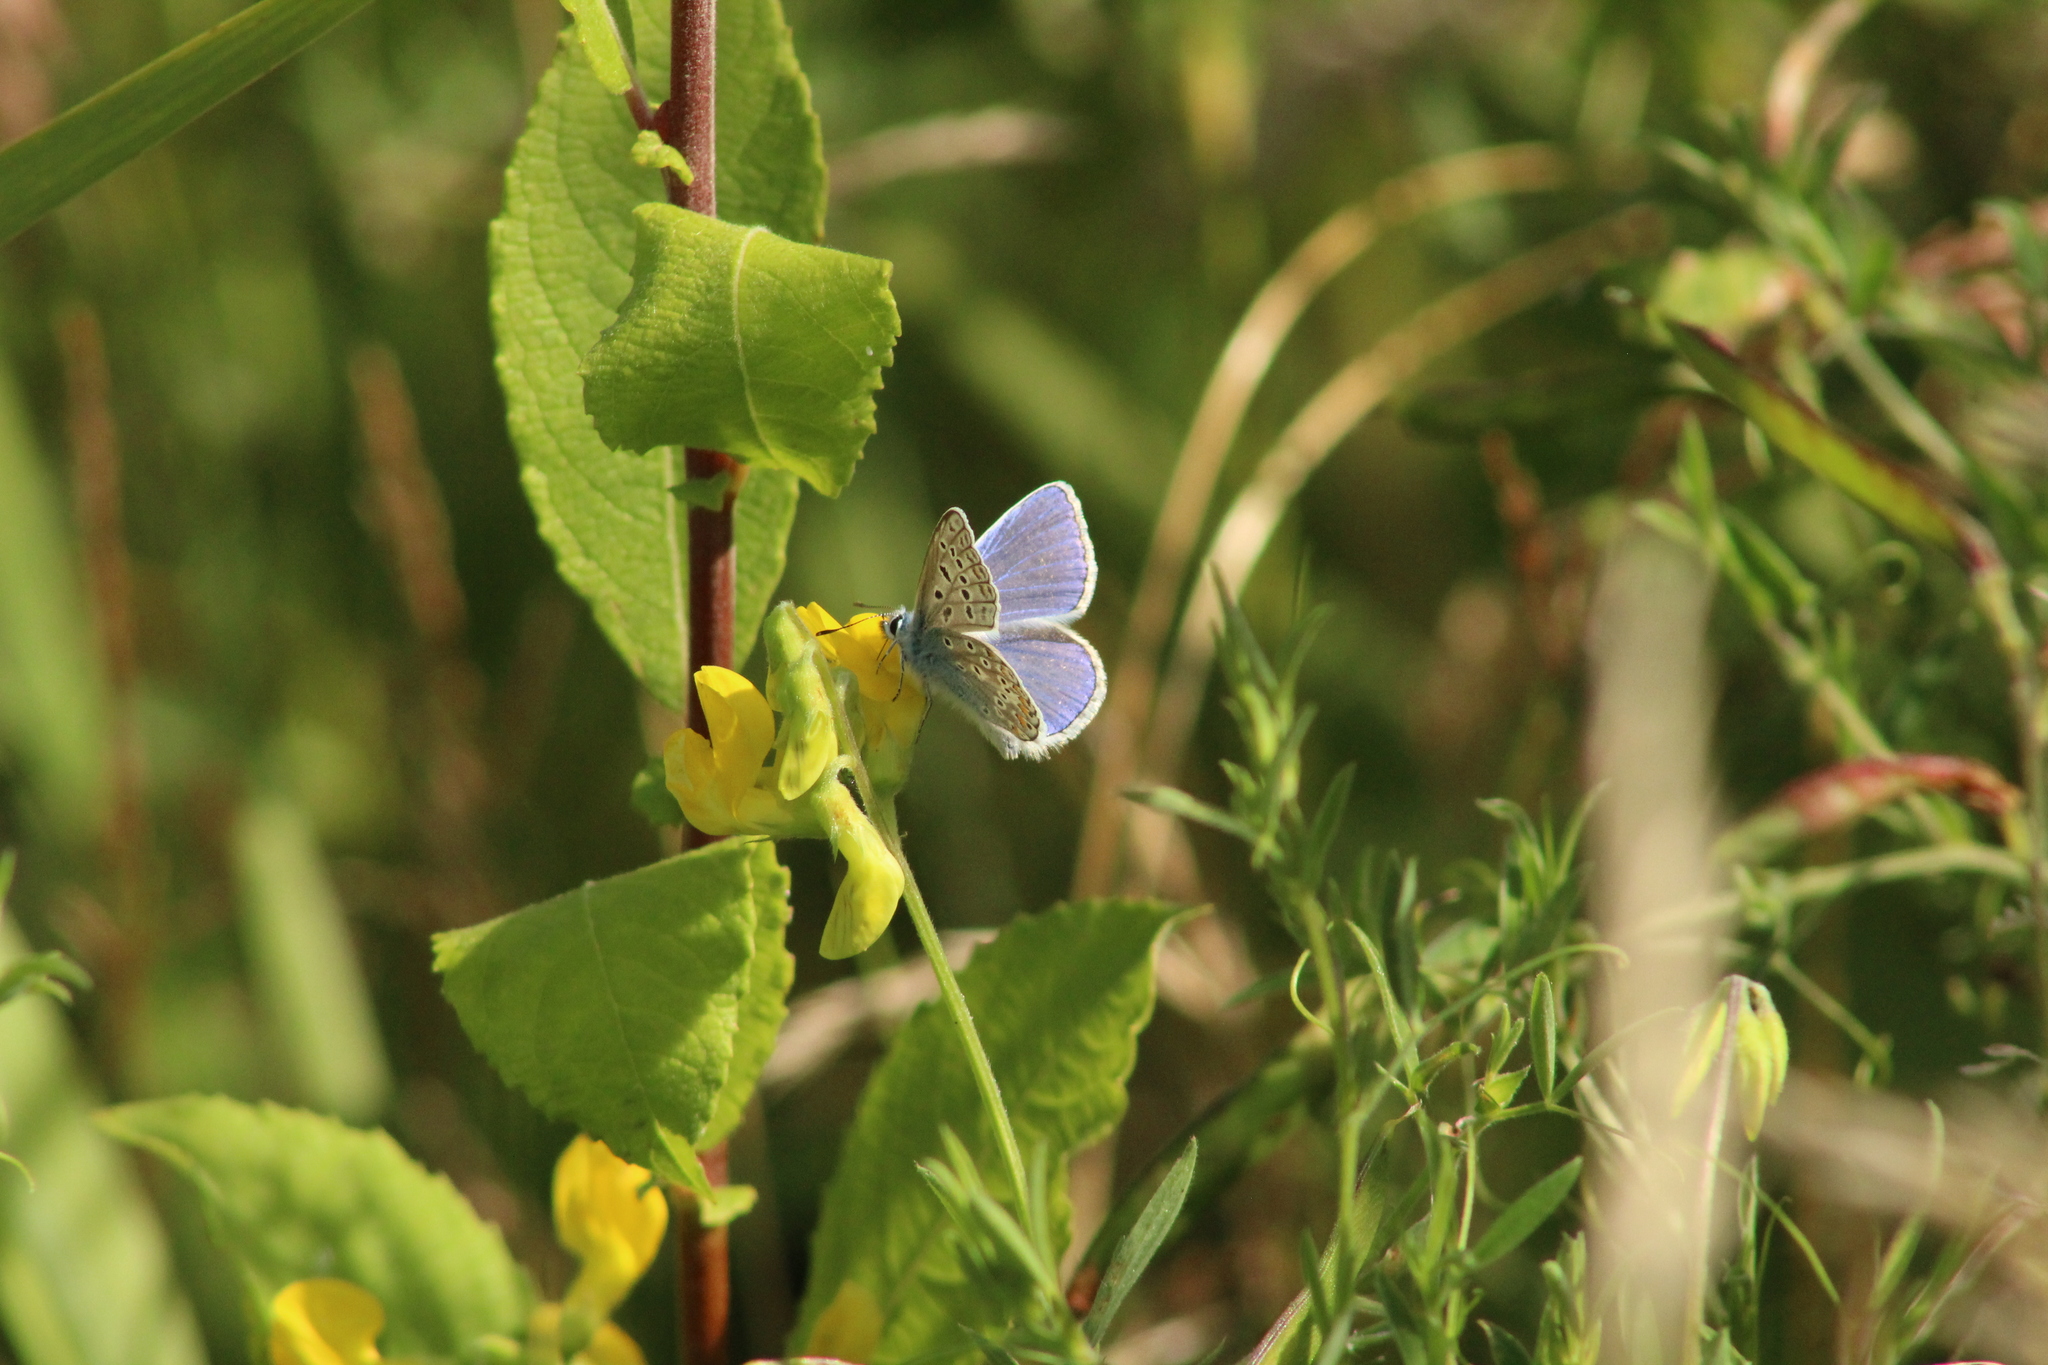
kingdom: Animalia
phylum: Arthropoda
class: Insecta
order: Lepidoptera
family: Lycaenidae
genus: Polyommatus
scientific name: Polyommatus icarus
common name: Common blue
